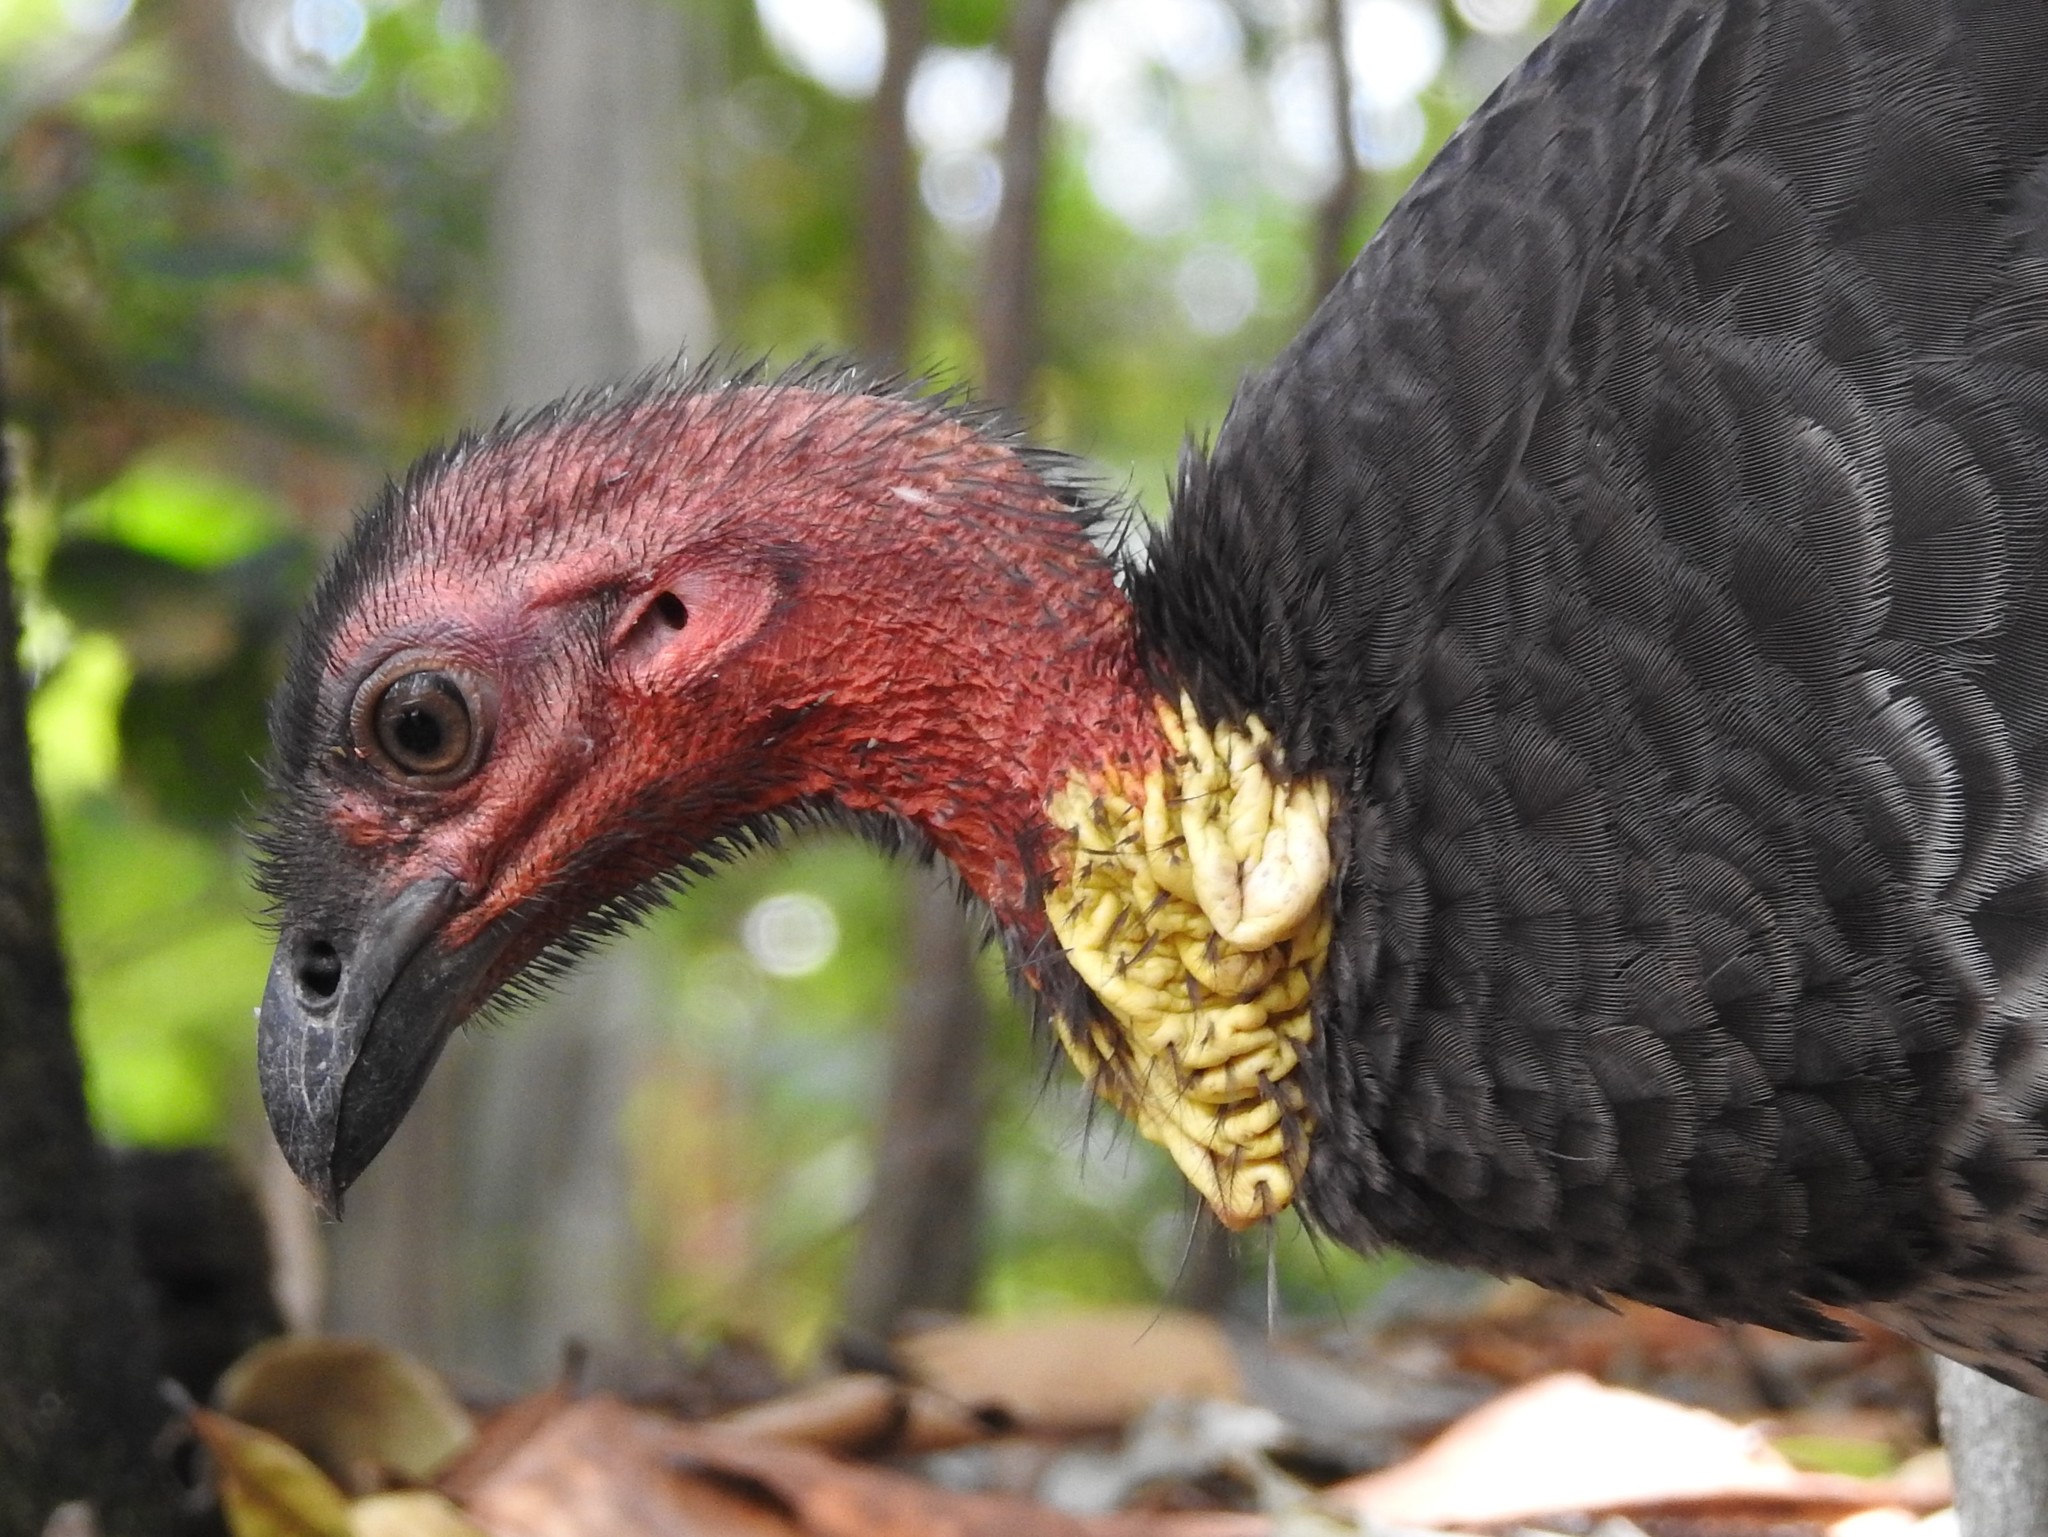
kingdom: Animalia
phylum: Chordata
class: Aves
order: Galliformes
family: Megapodiidae
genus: Alectura
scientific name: Alectura lathami
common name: Australian brushturkey
